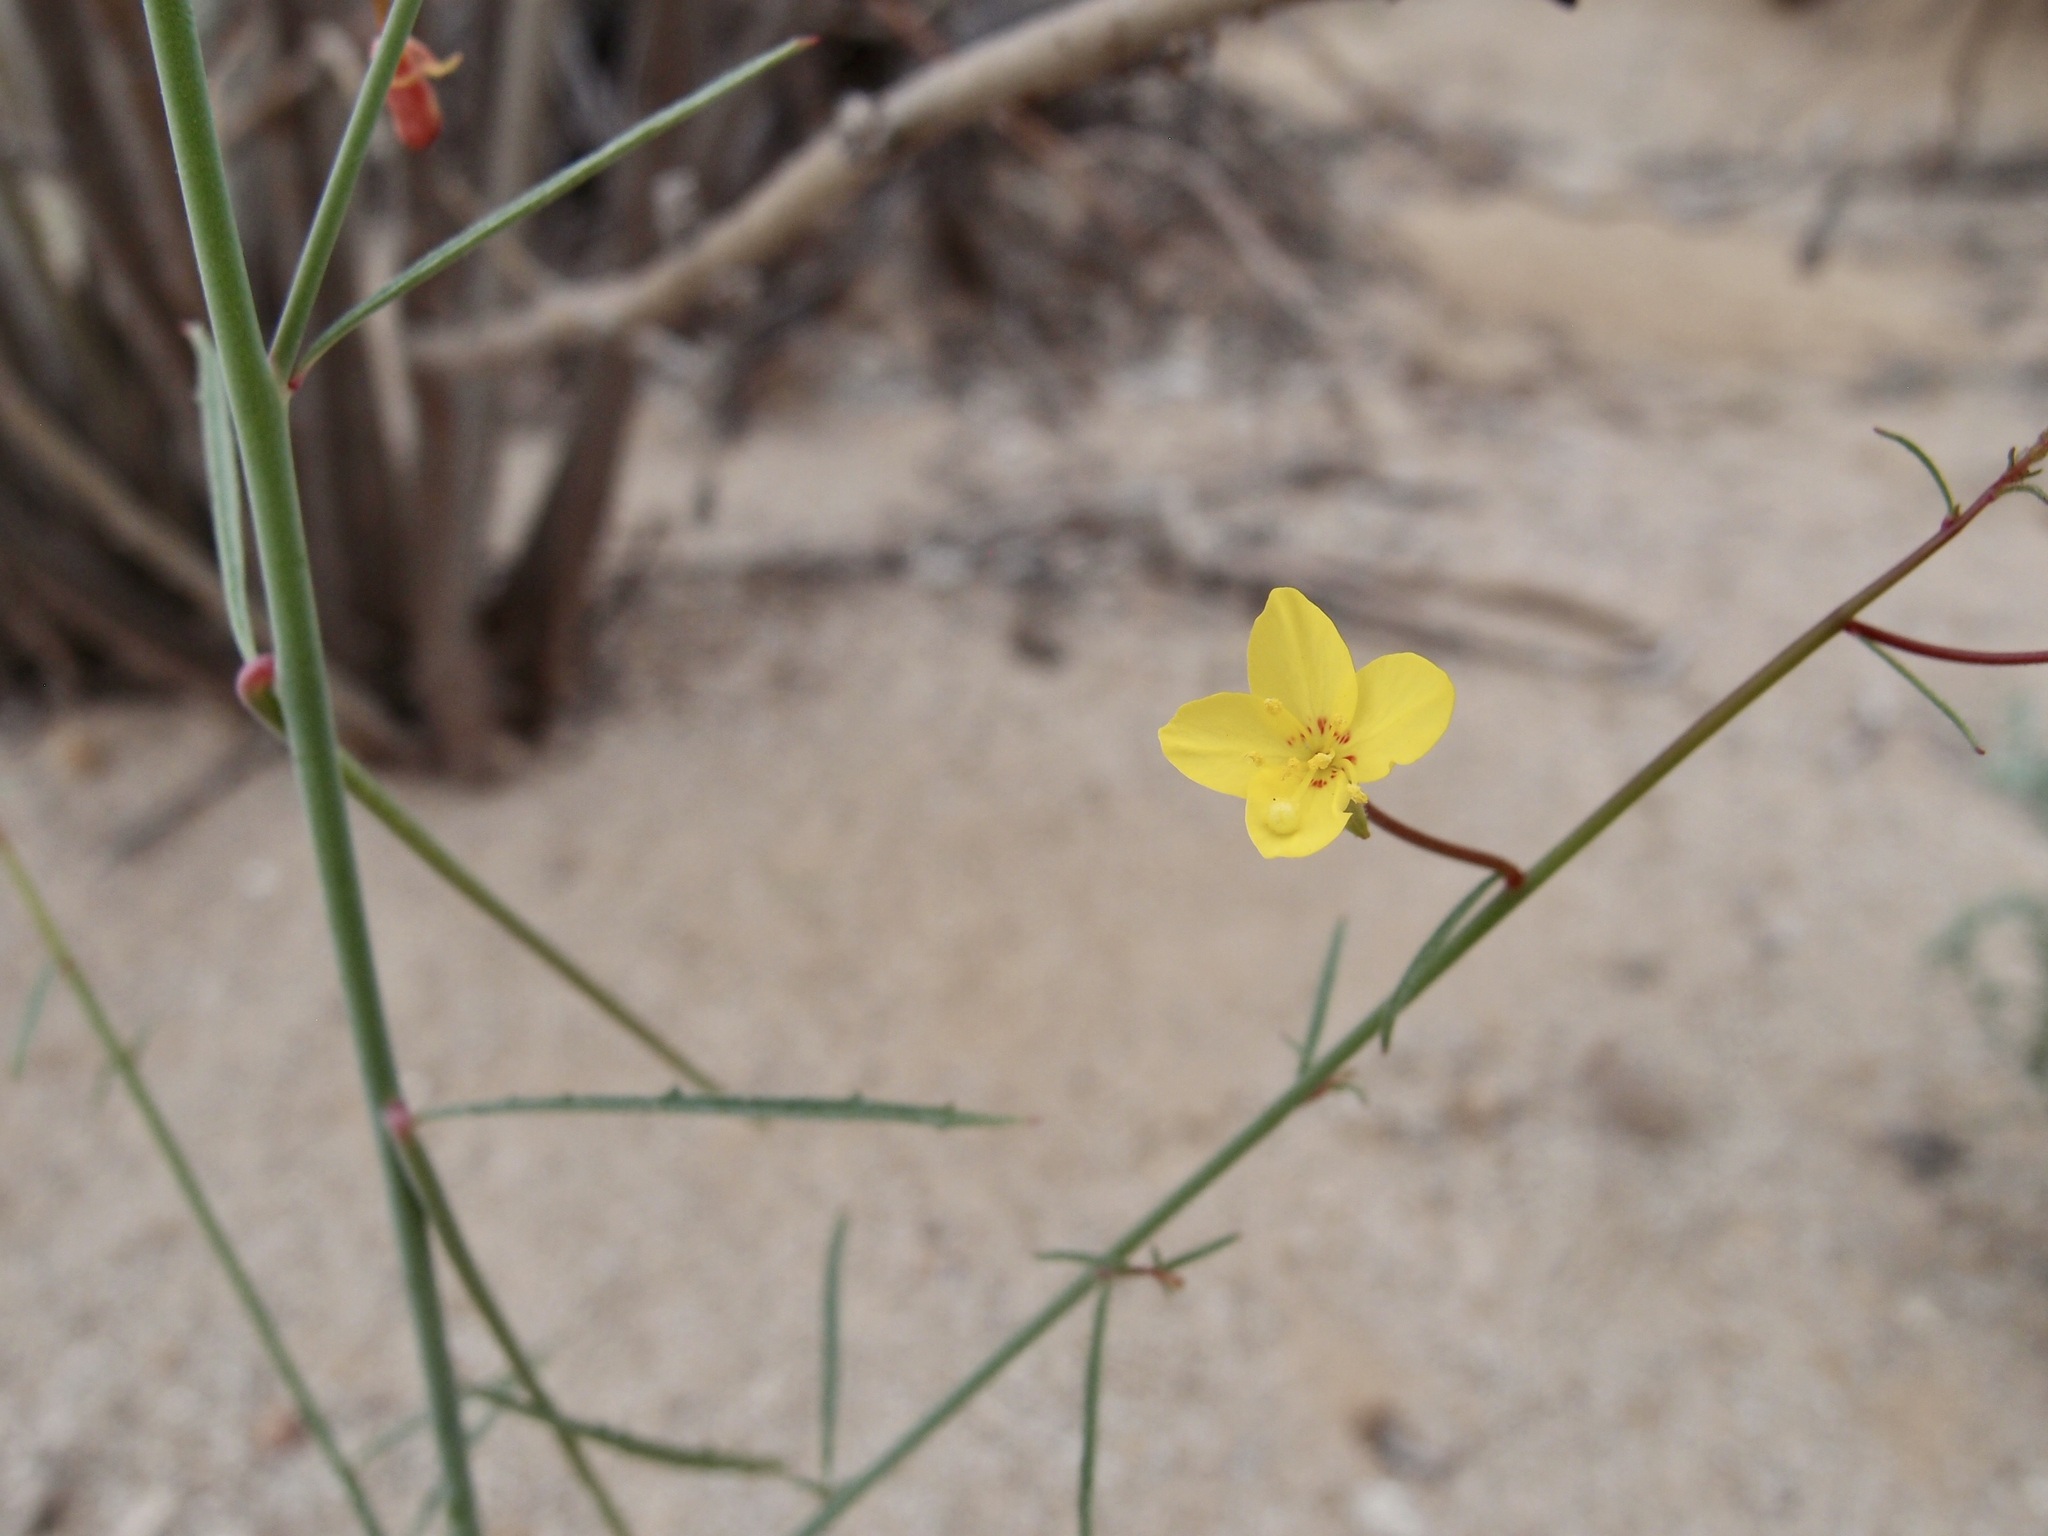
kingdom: Plantae
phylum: Tracheophyta
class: Magnoliopsida
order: Myrtales
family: Onagraceae
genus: Eulobus
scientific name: Eulobus californicus
